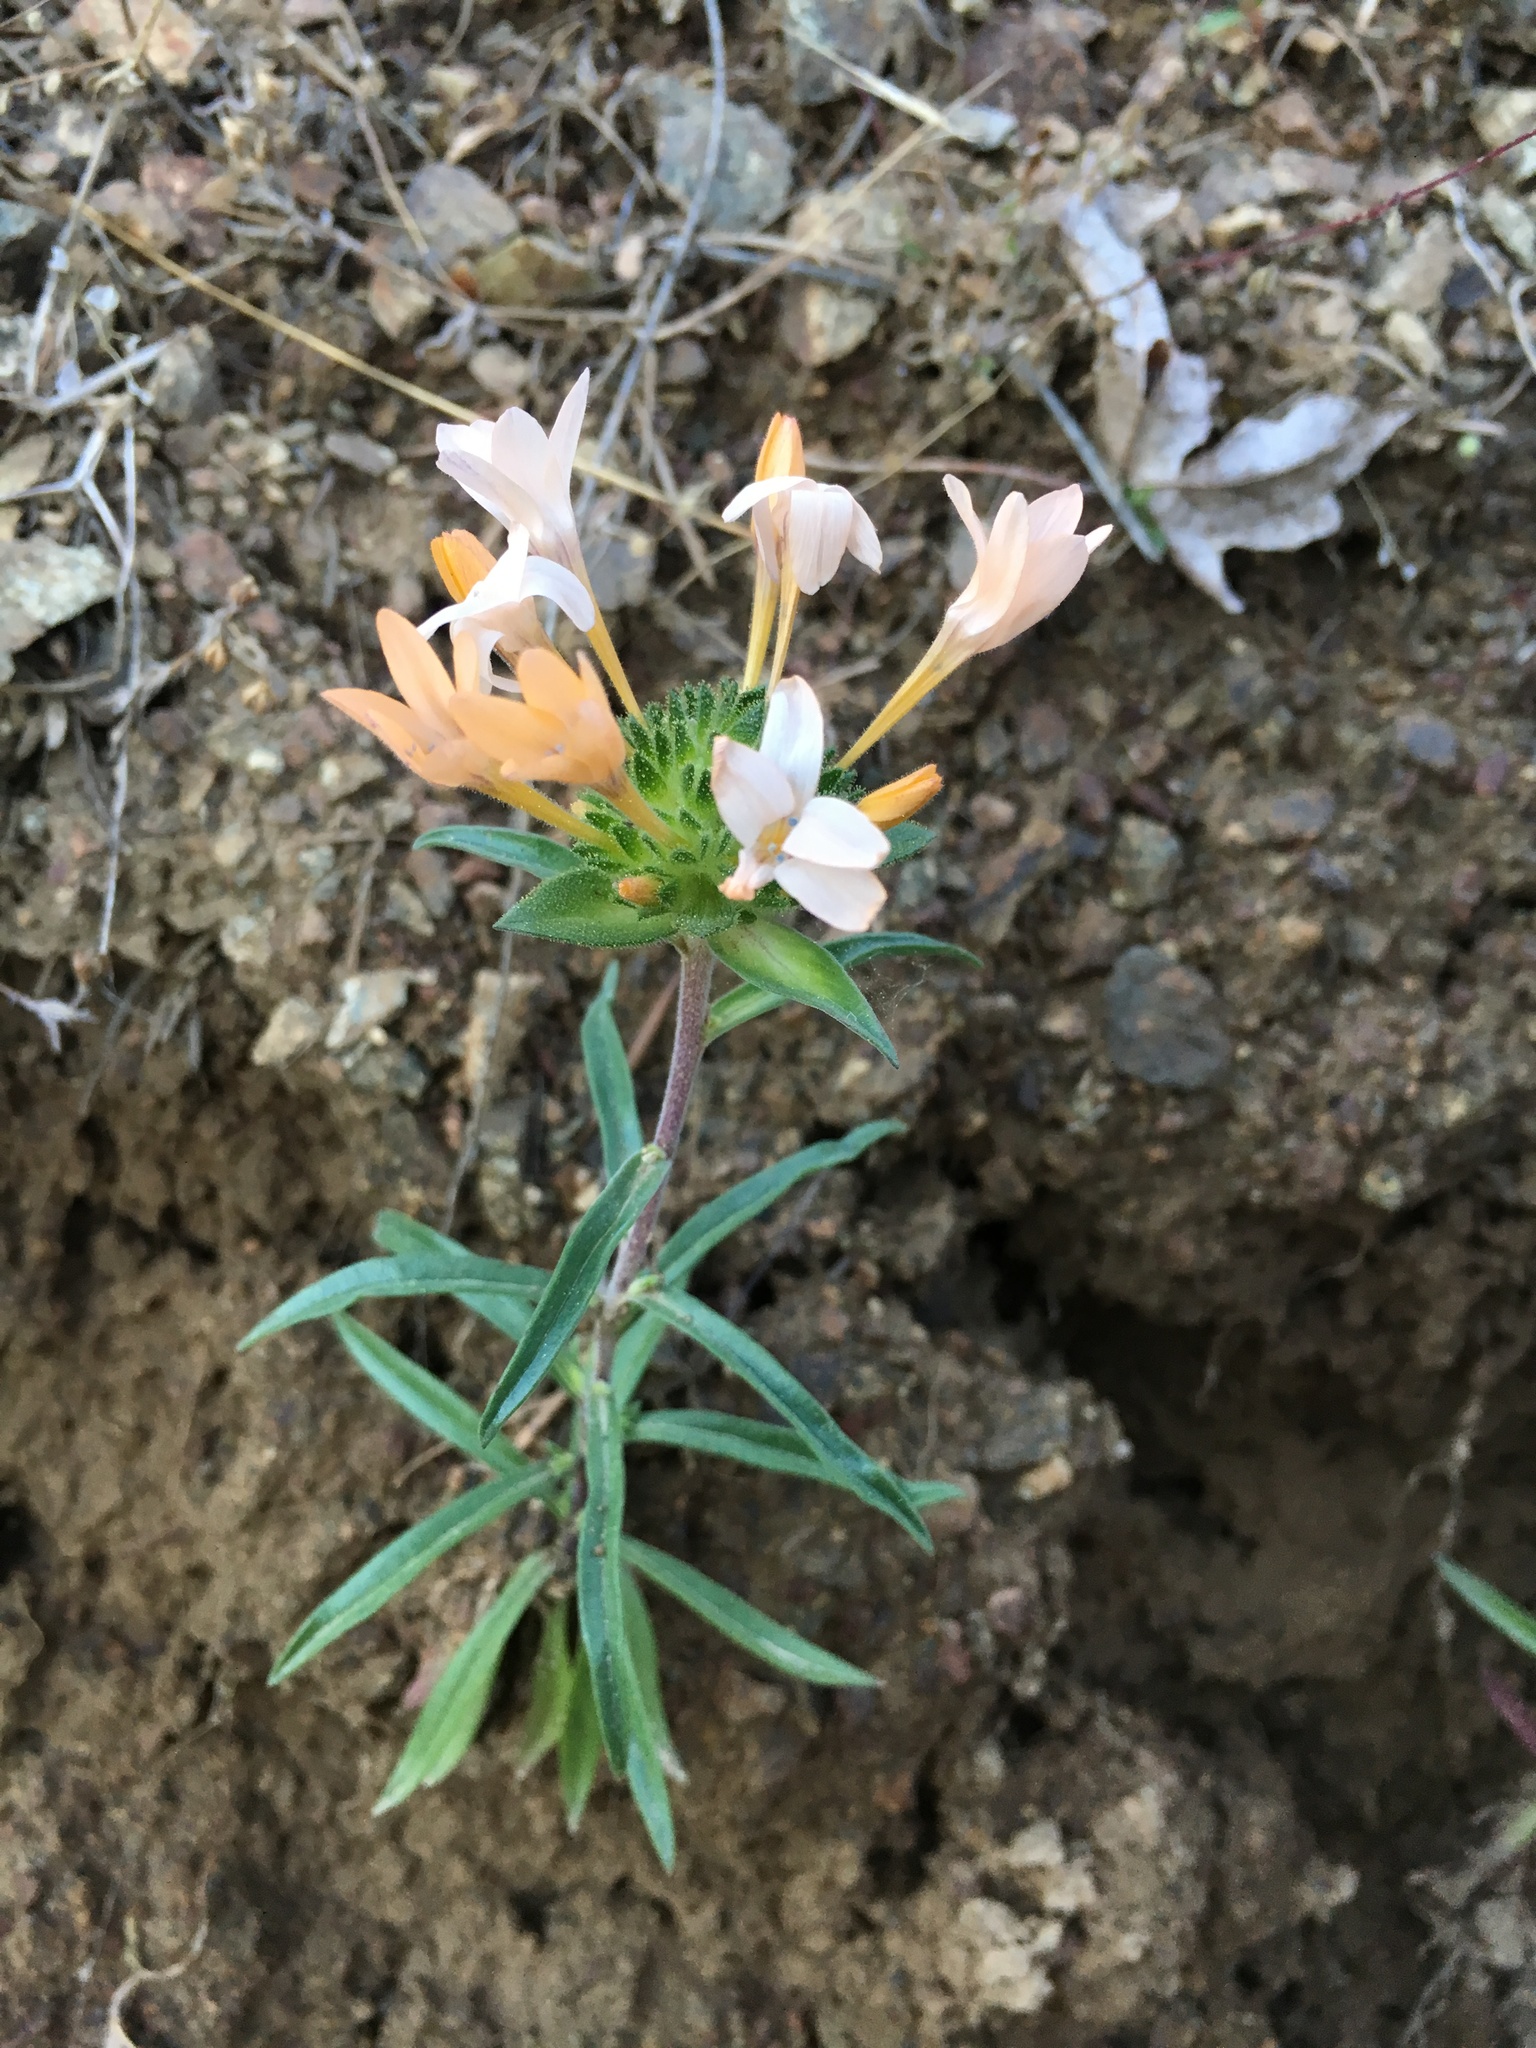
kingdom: Plantae
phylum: Tracheophyta
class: Magnoliopsida
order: Ericales
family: Polemoniaceae
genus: Collomia
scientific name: Collomia grandiflora
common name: California strawflower
